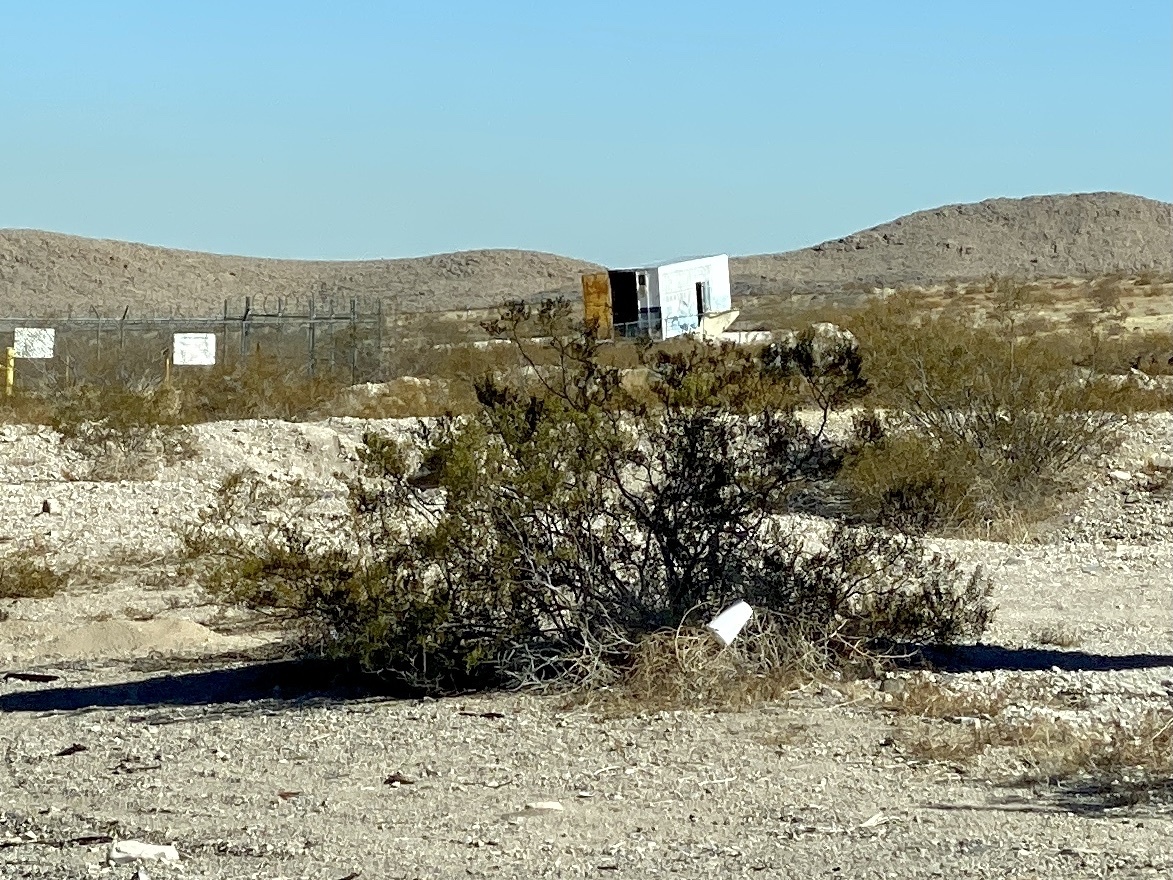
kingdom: Plantae
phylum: Tracheophyta
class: Magnoliopsida
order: Zygophyllales
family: Zygophyllaceae
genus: Larrea
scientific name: Larrea tridentata
